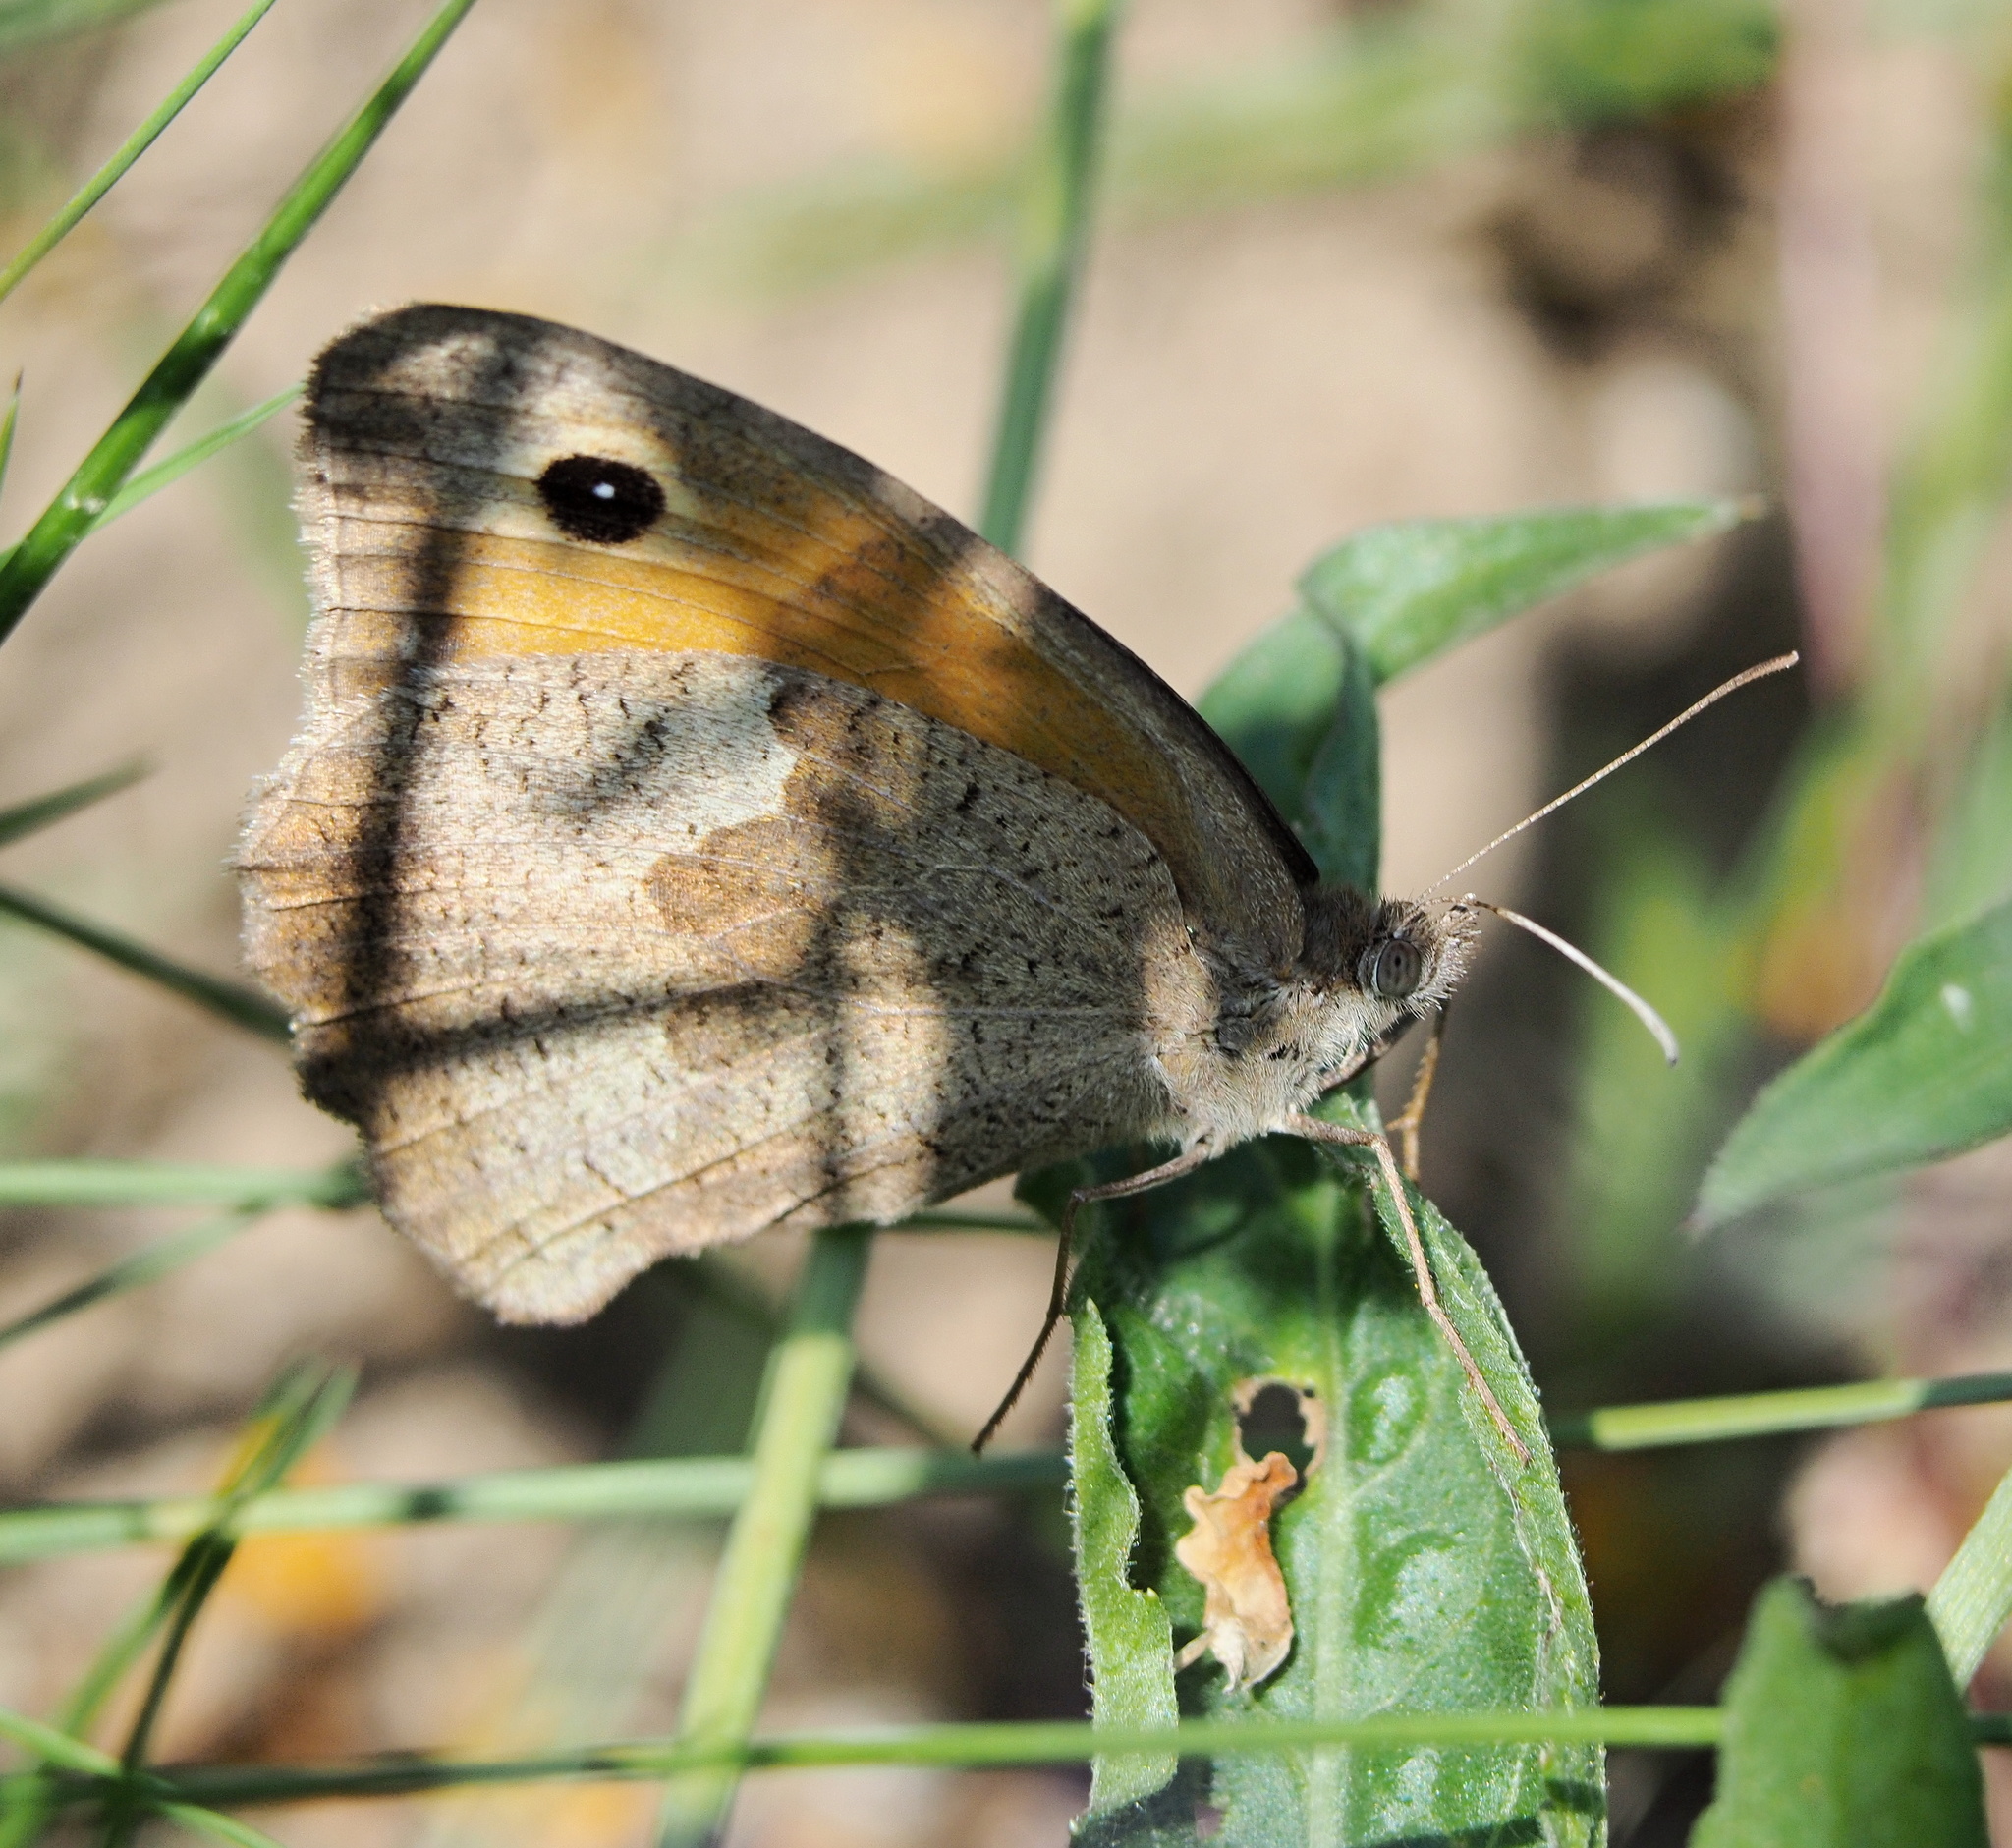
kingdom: Animalia
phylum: Arthropoda
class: Insecta
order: Lepidoptera
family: Nymphalidae
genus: Maniola
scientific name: Maniola jurtina
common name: Meadow brown
